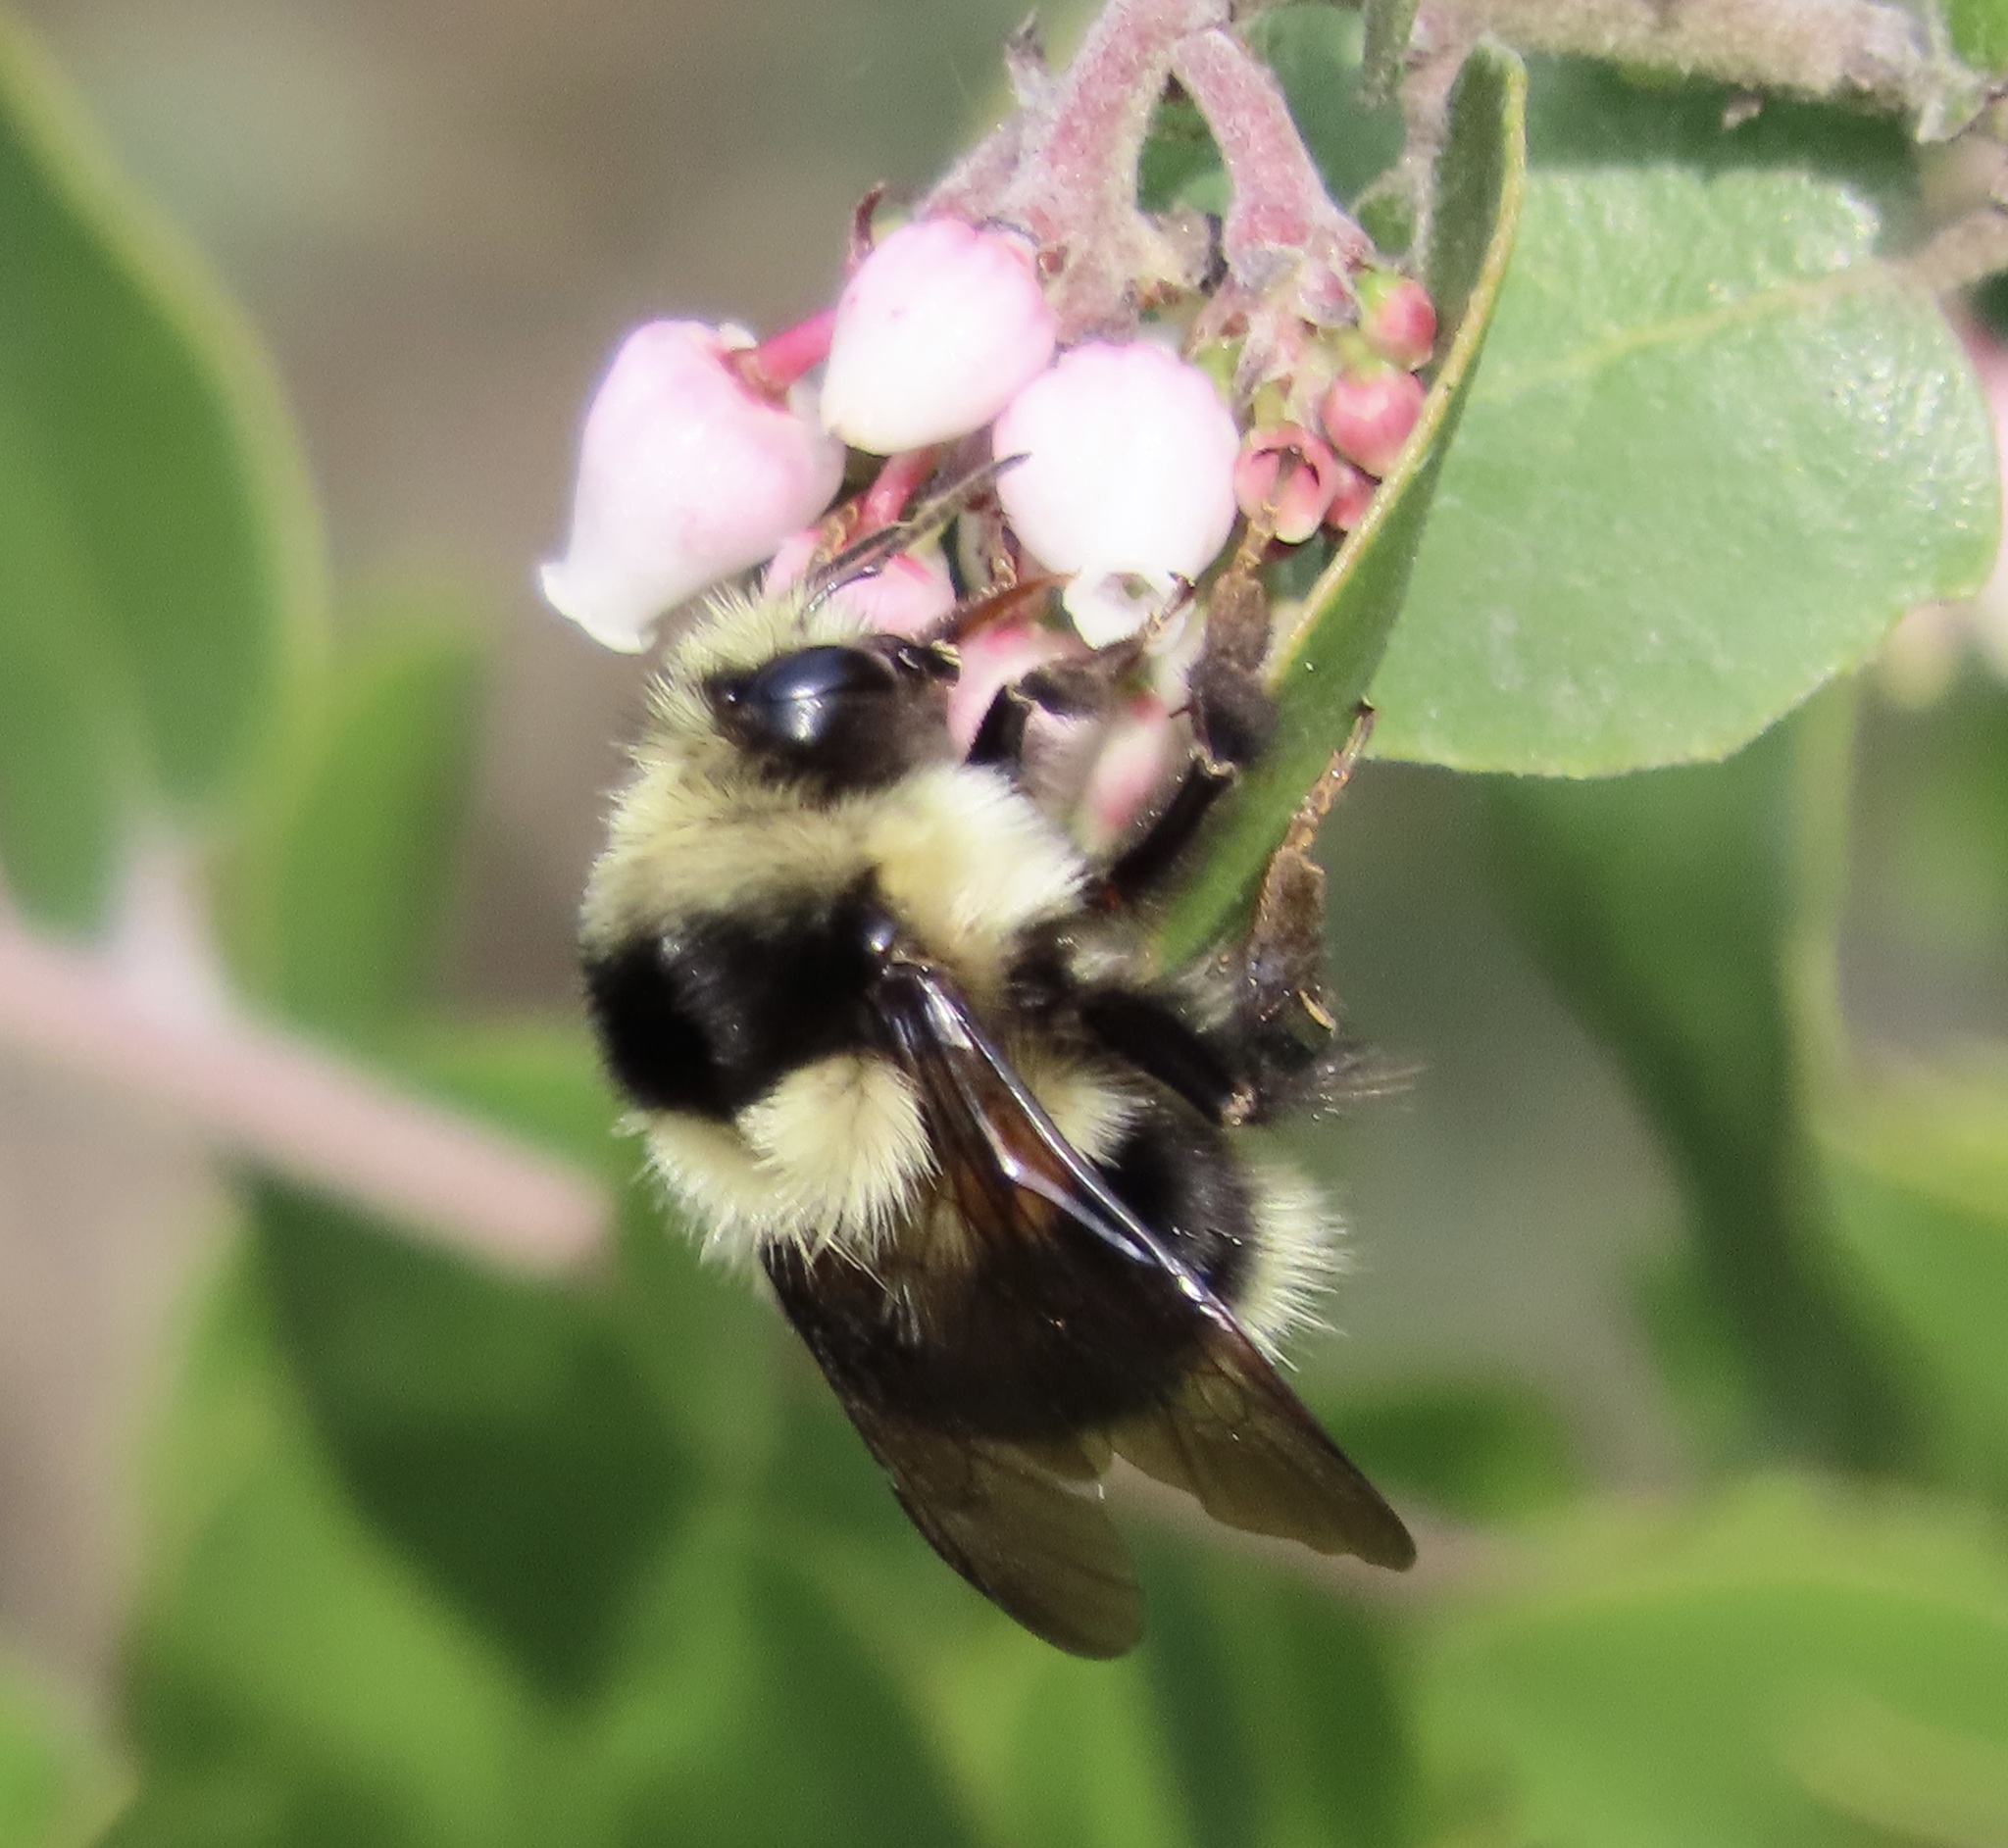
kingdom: Animalia
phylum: Arthropoda
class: Insecta
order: Hymenoptera
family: Apidae
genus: Bombus
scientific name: Bombus melanopygus
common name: Black tail bumble bee
